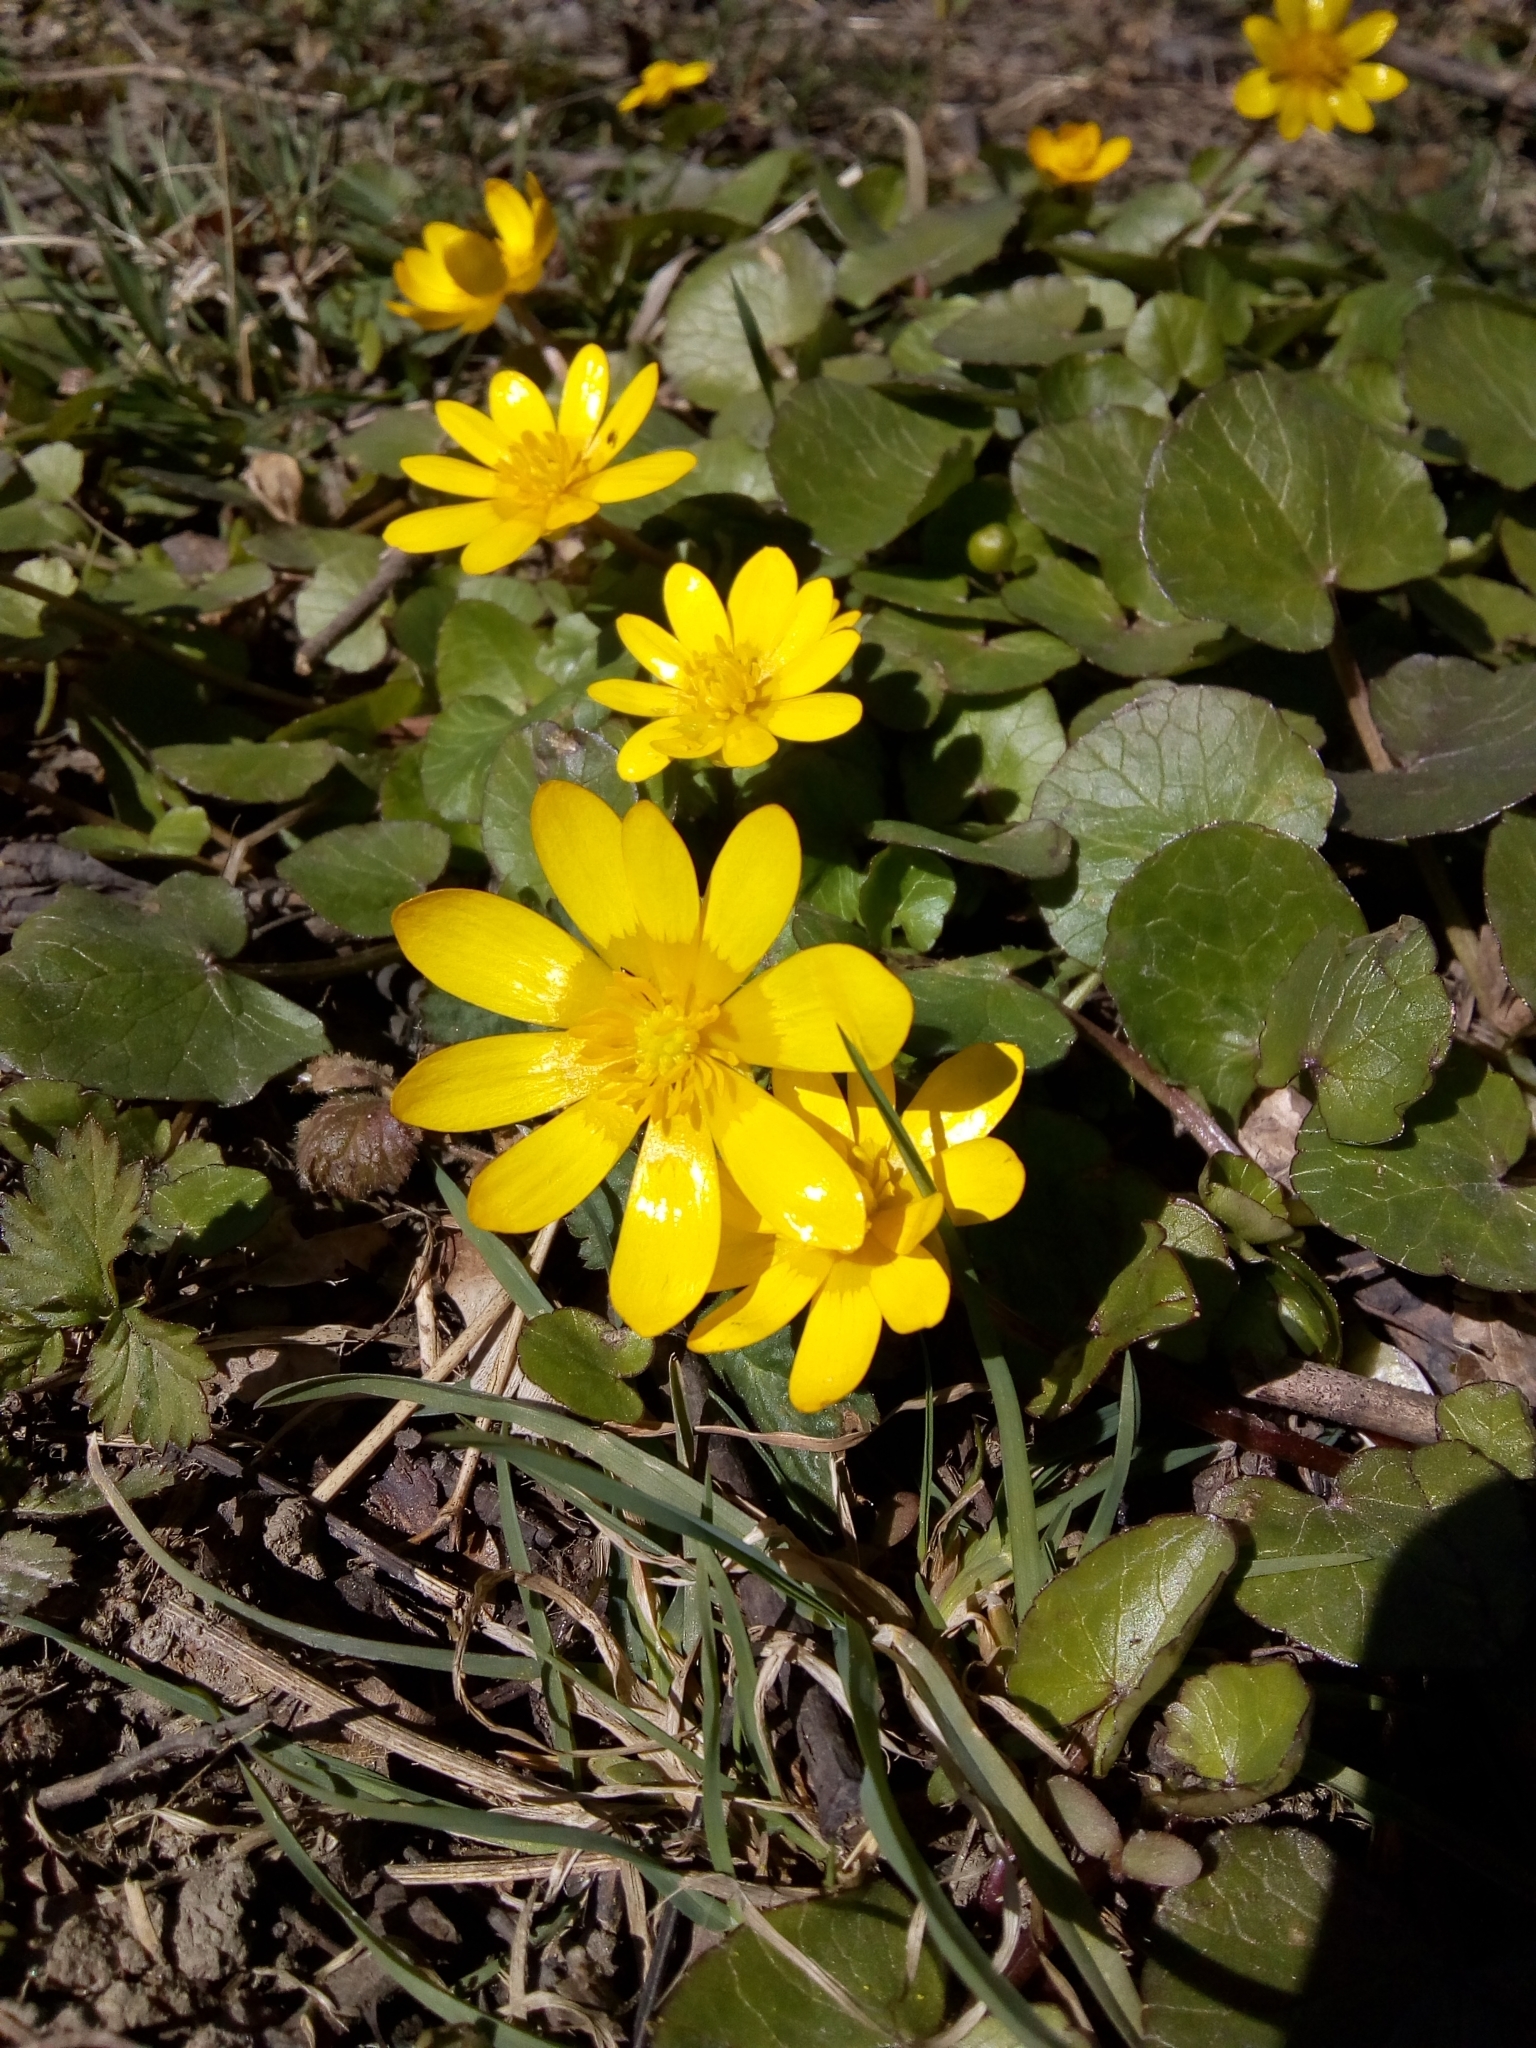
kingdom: Plantae
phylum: Tracheophyta
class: Magnoliopsida
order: Ranunculales
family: Ranunculaceae
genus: Ficaria
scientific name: Ficaria verna
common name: Lesser celandine
